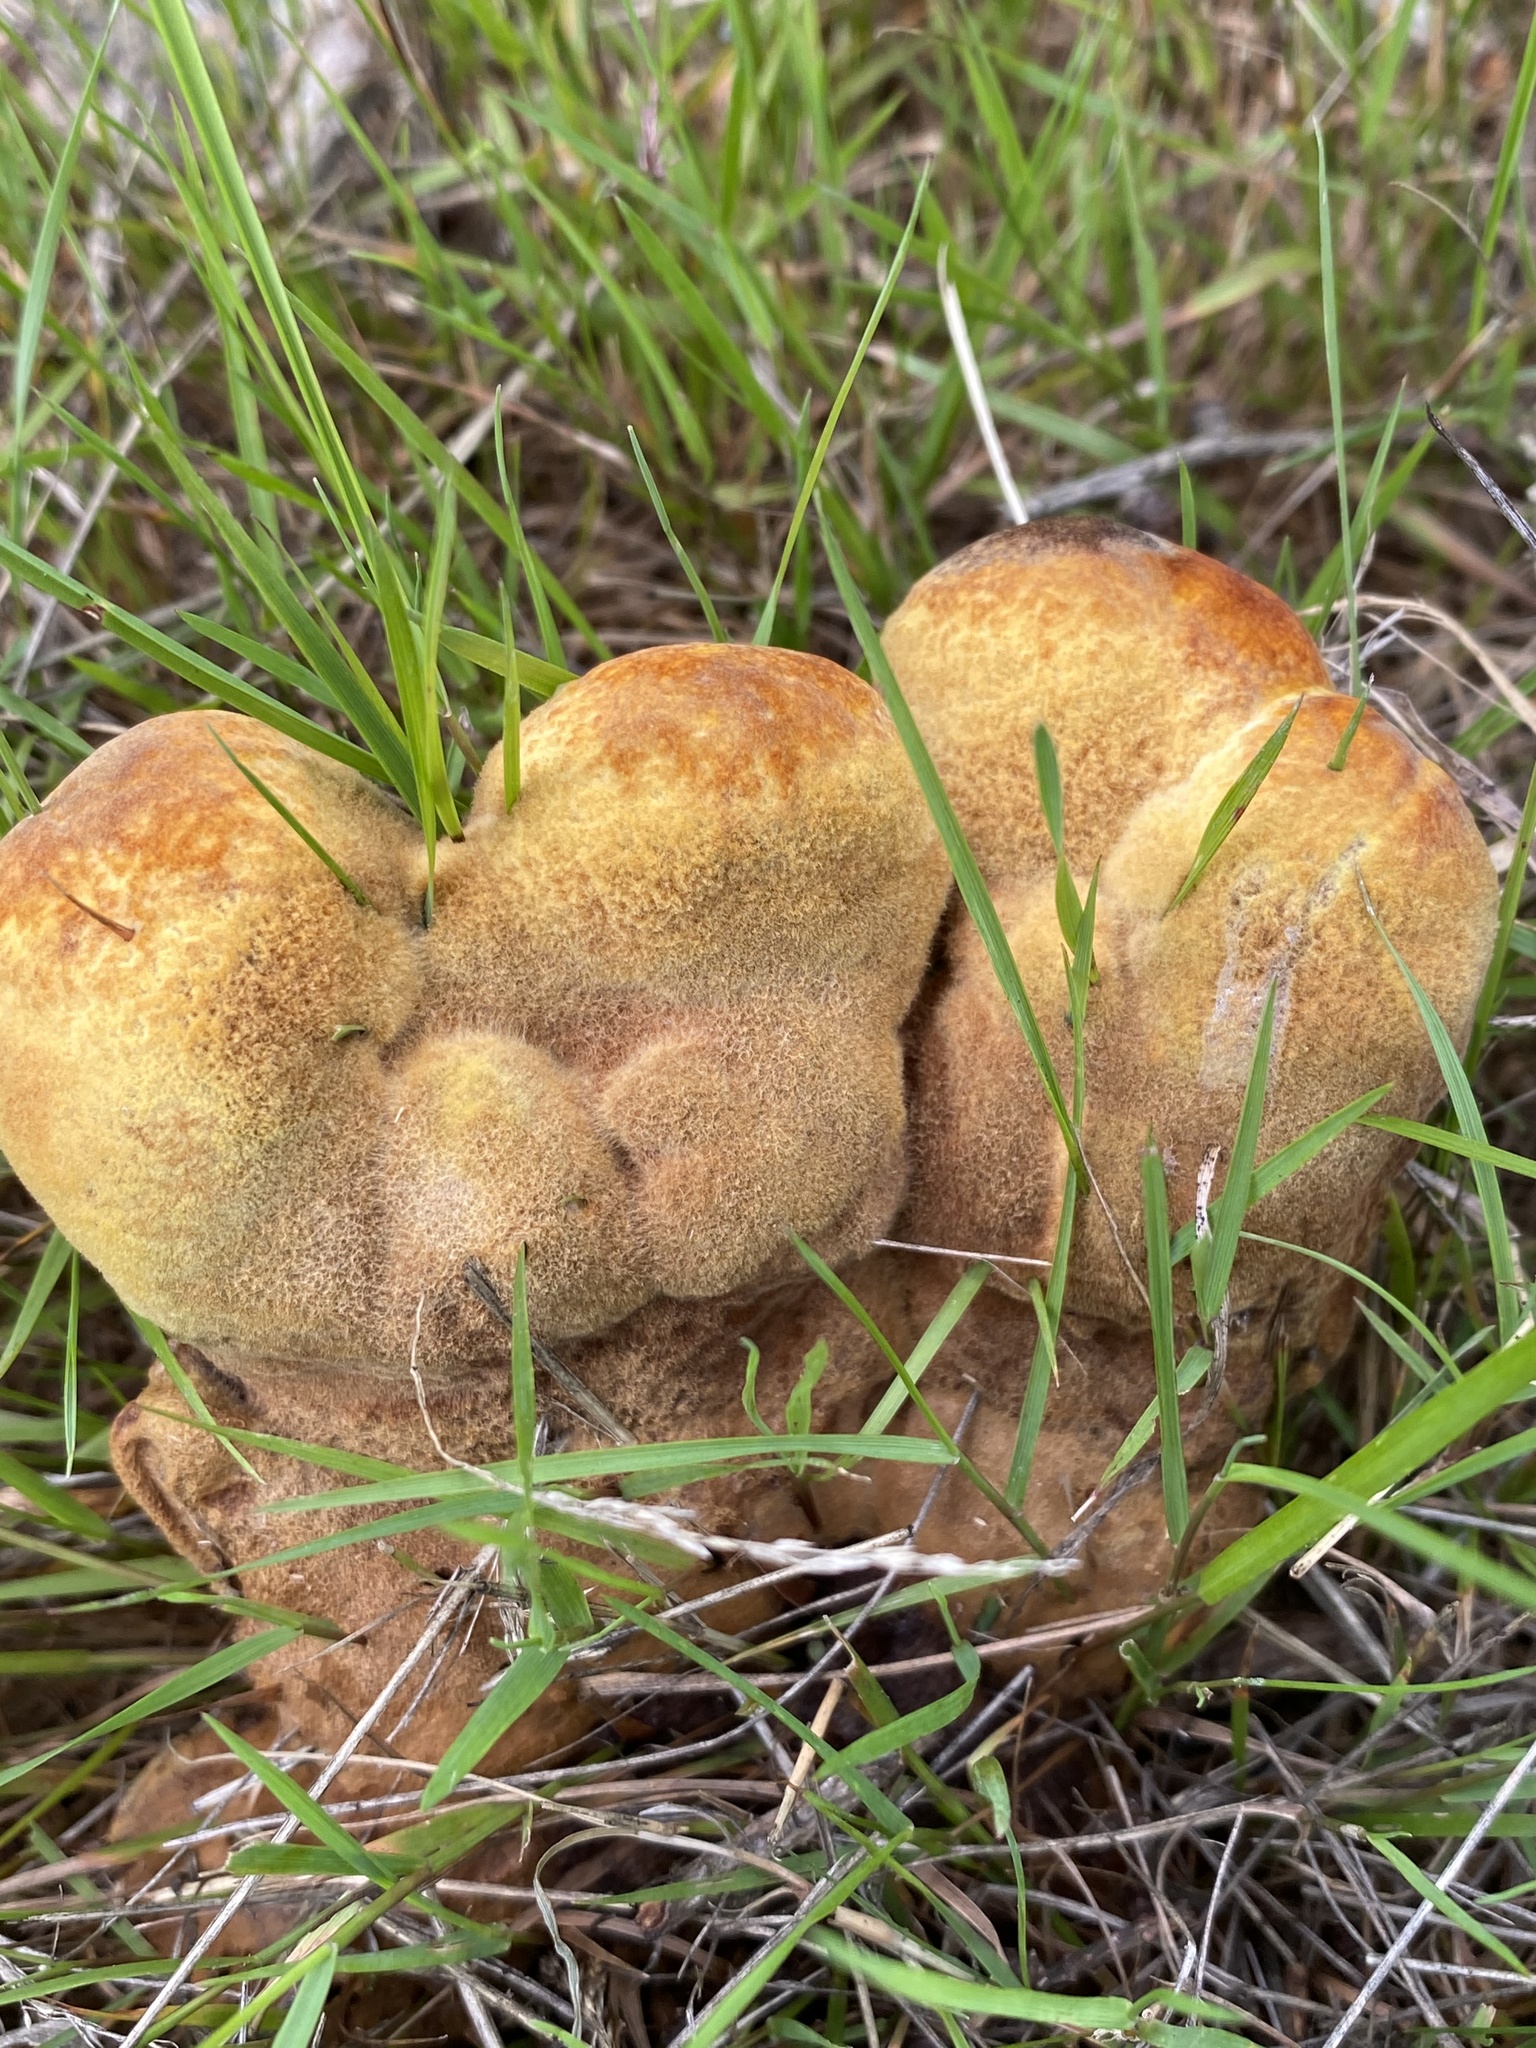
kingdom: Fungi
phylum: Basidiomycota
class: Agaricomycetes
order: Polyporales
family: Laetiporaceae
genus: Phaeolus
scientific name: Phaeolus schweinitzii
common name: Dyer's mazegill
